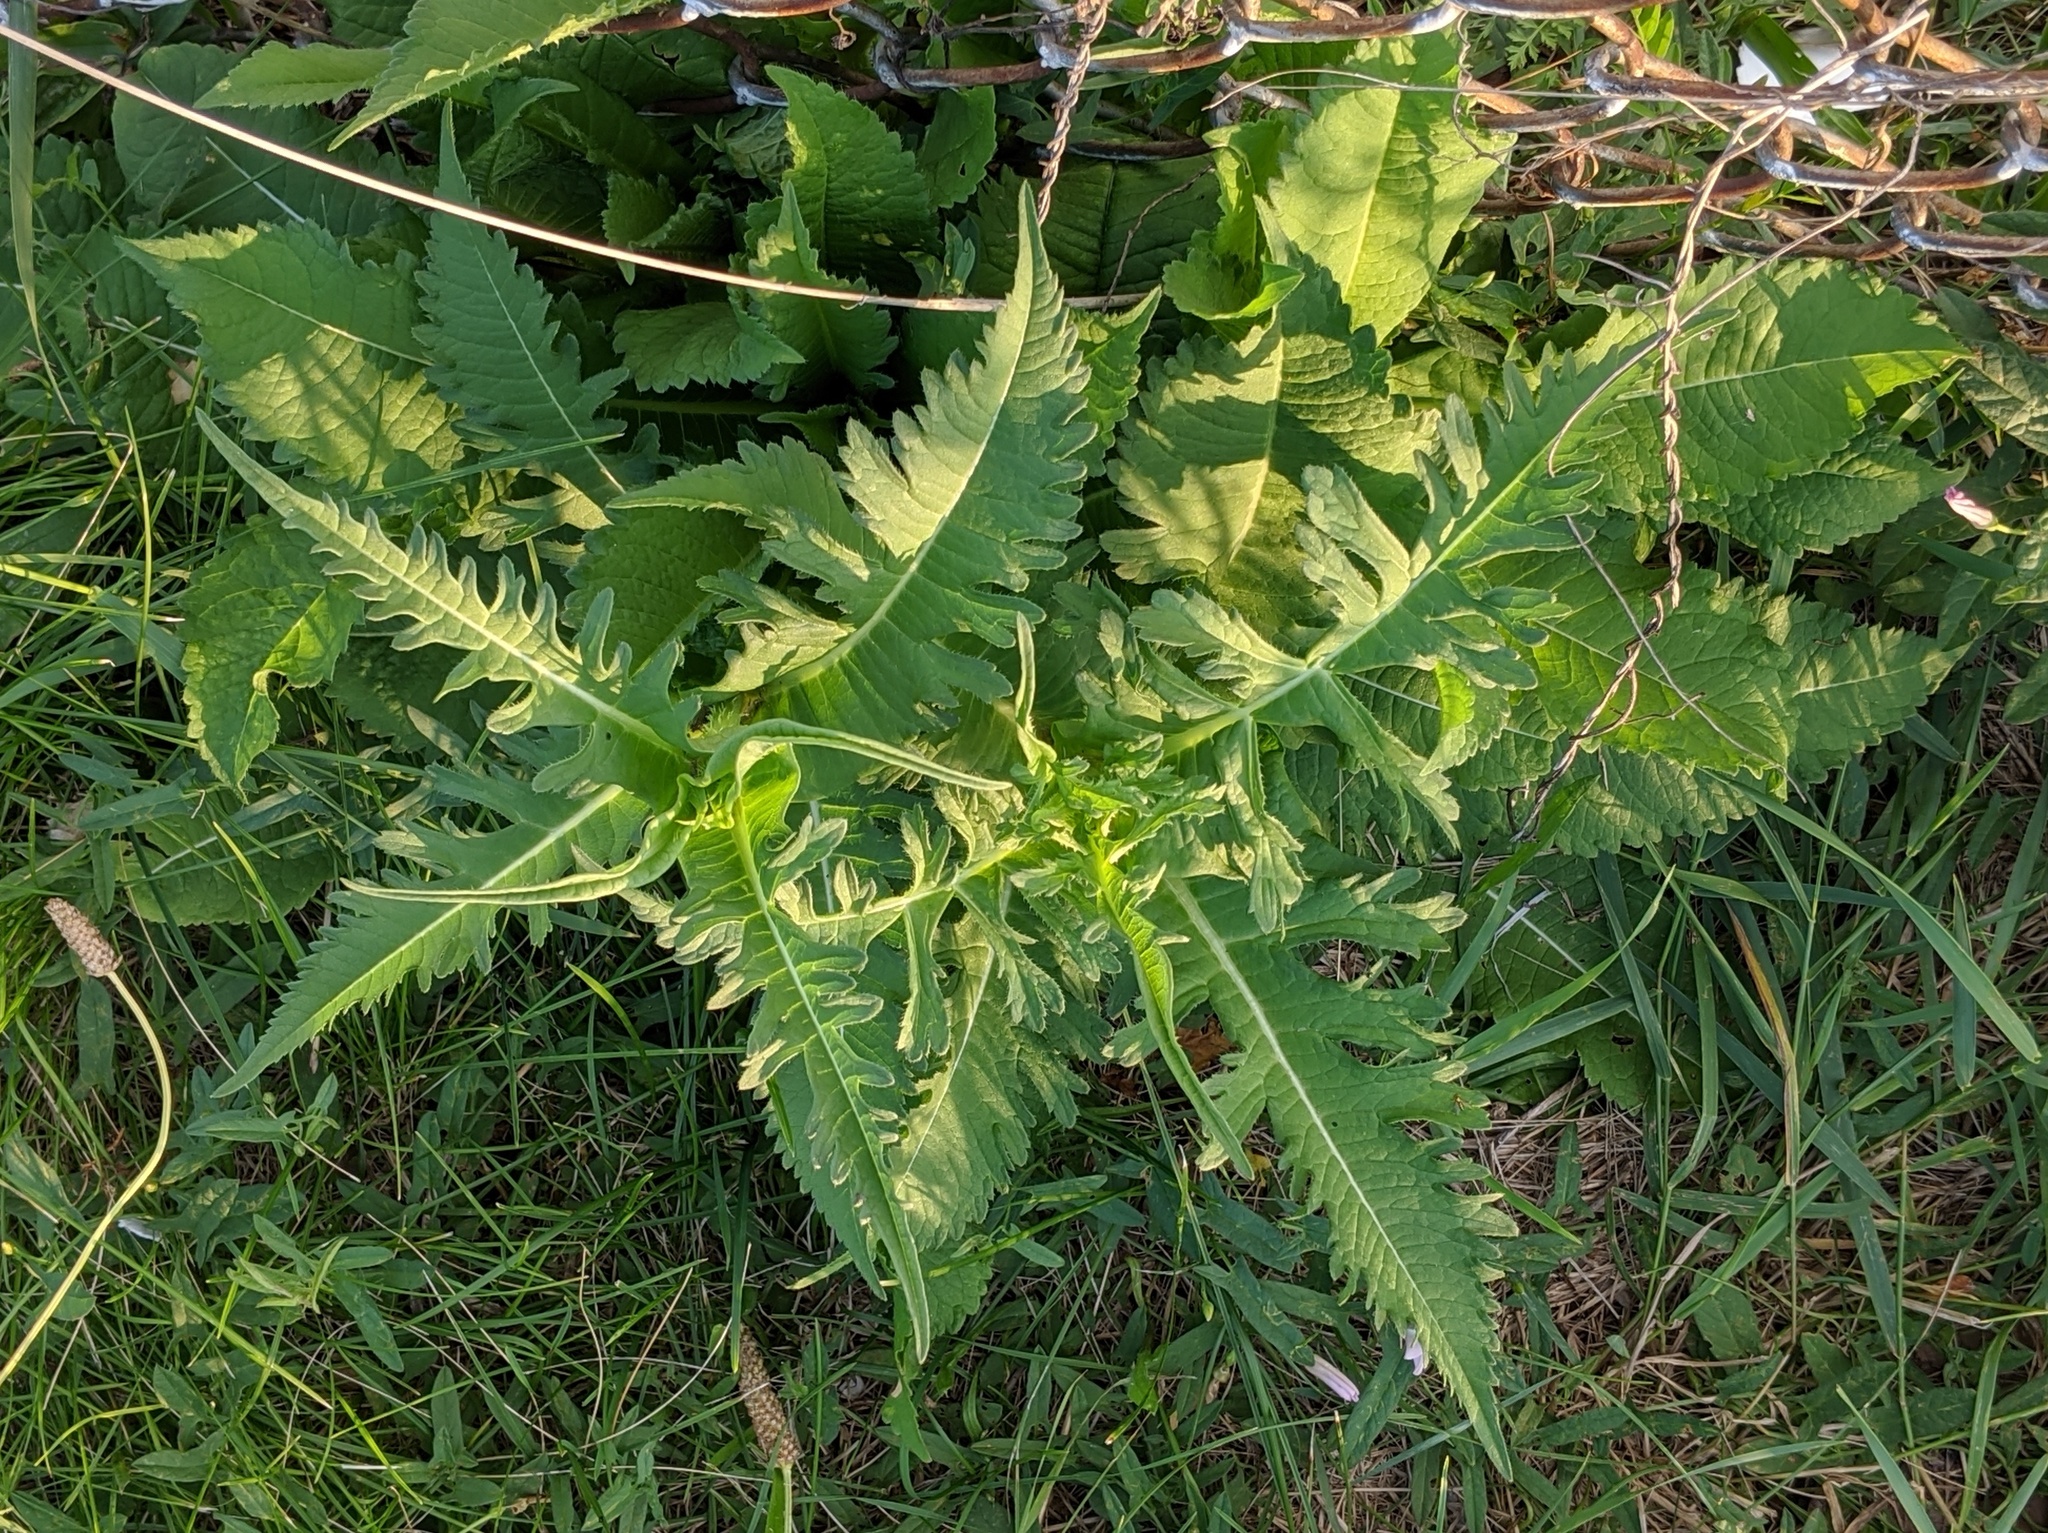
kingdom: Plantae
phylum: Tracheophyta
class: Magnoliopsida
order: Dipsacales
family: Caprifoliaceae
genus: Dipsacus
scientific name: Dipsacus laciniatus
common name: Cut-leaved teasel
